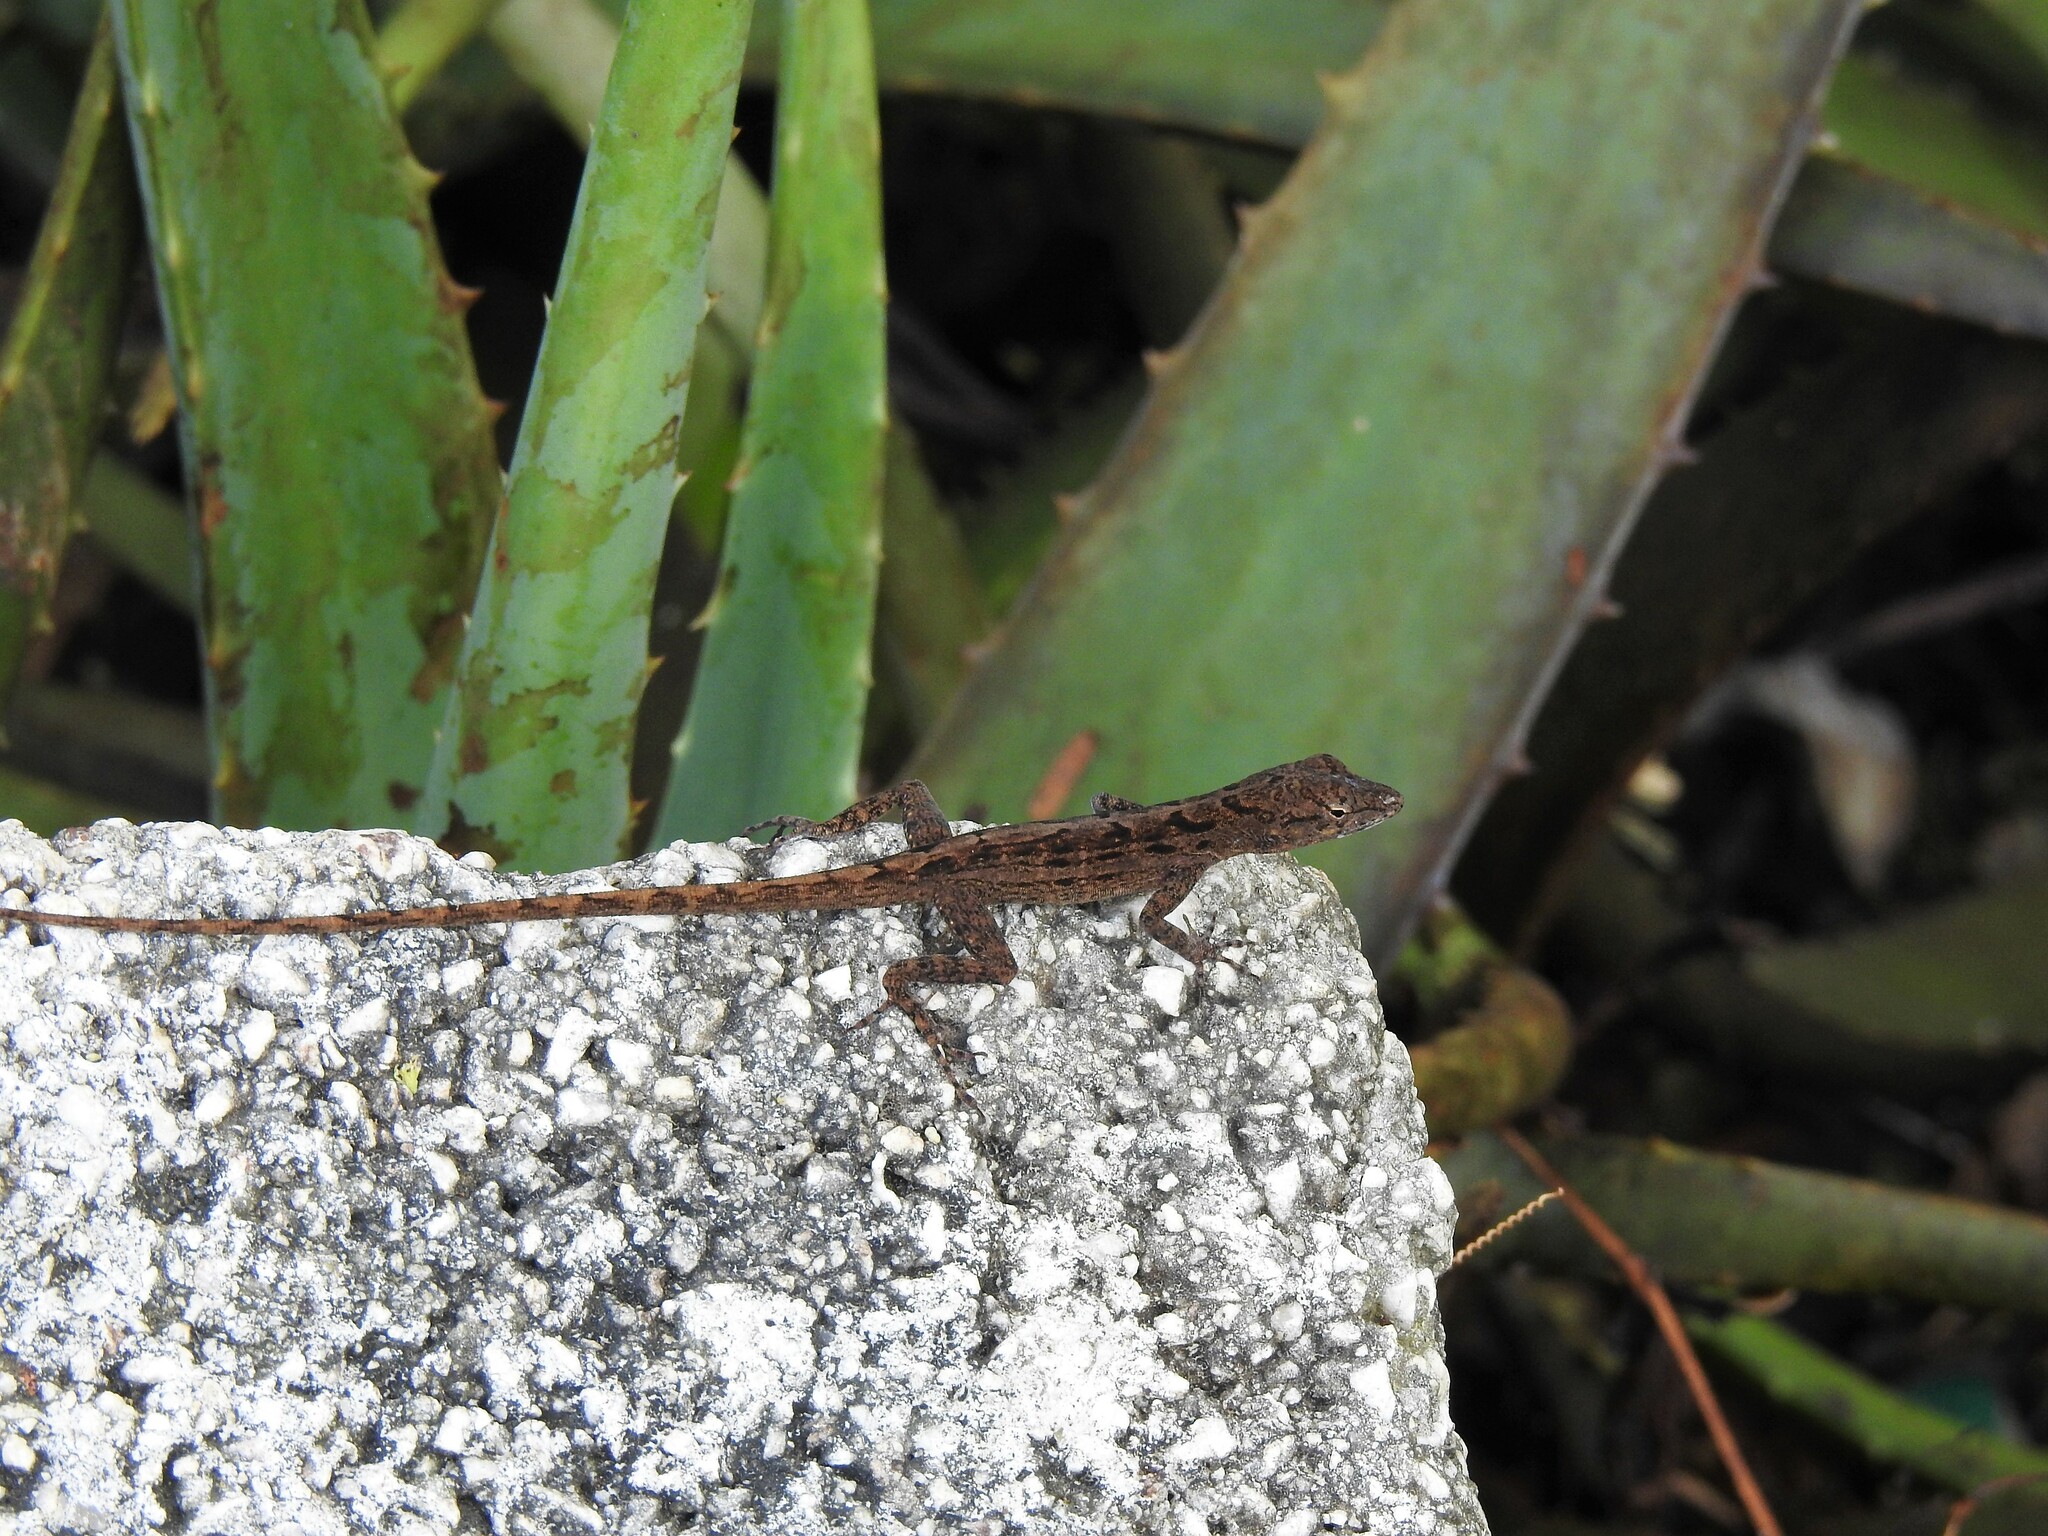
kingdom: Animalia
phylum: Chordata
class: Squamata
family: Dactyloidae
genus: Anolis
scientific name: Anolis lineatus
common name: Striped anole
